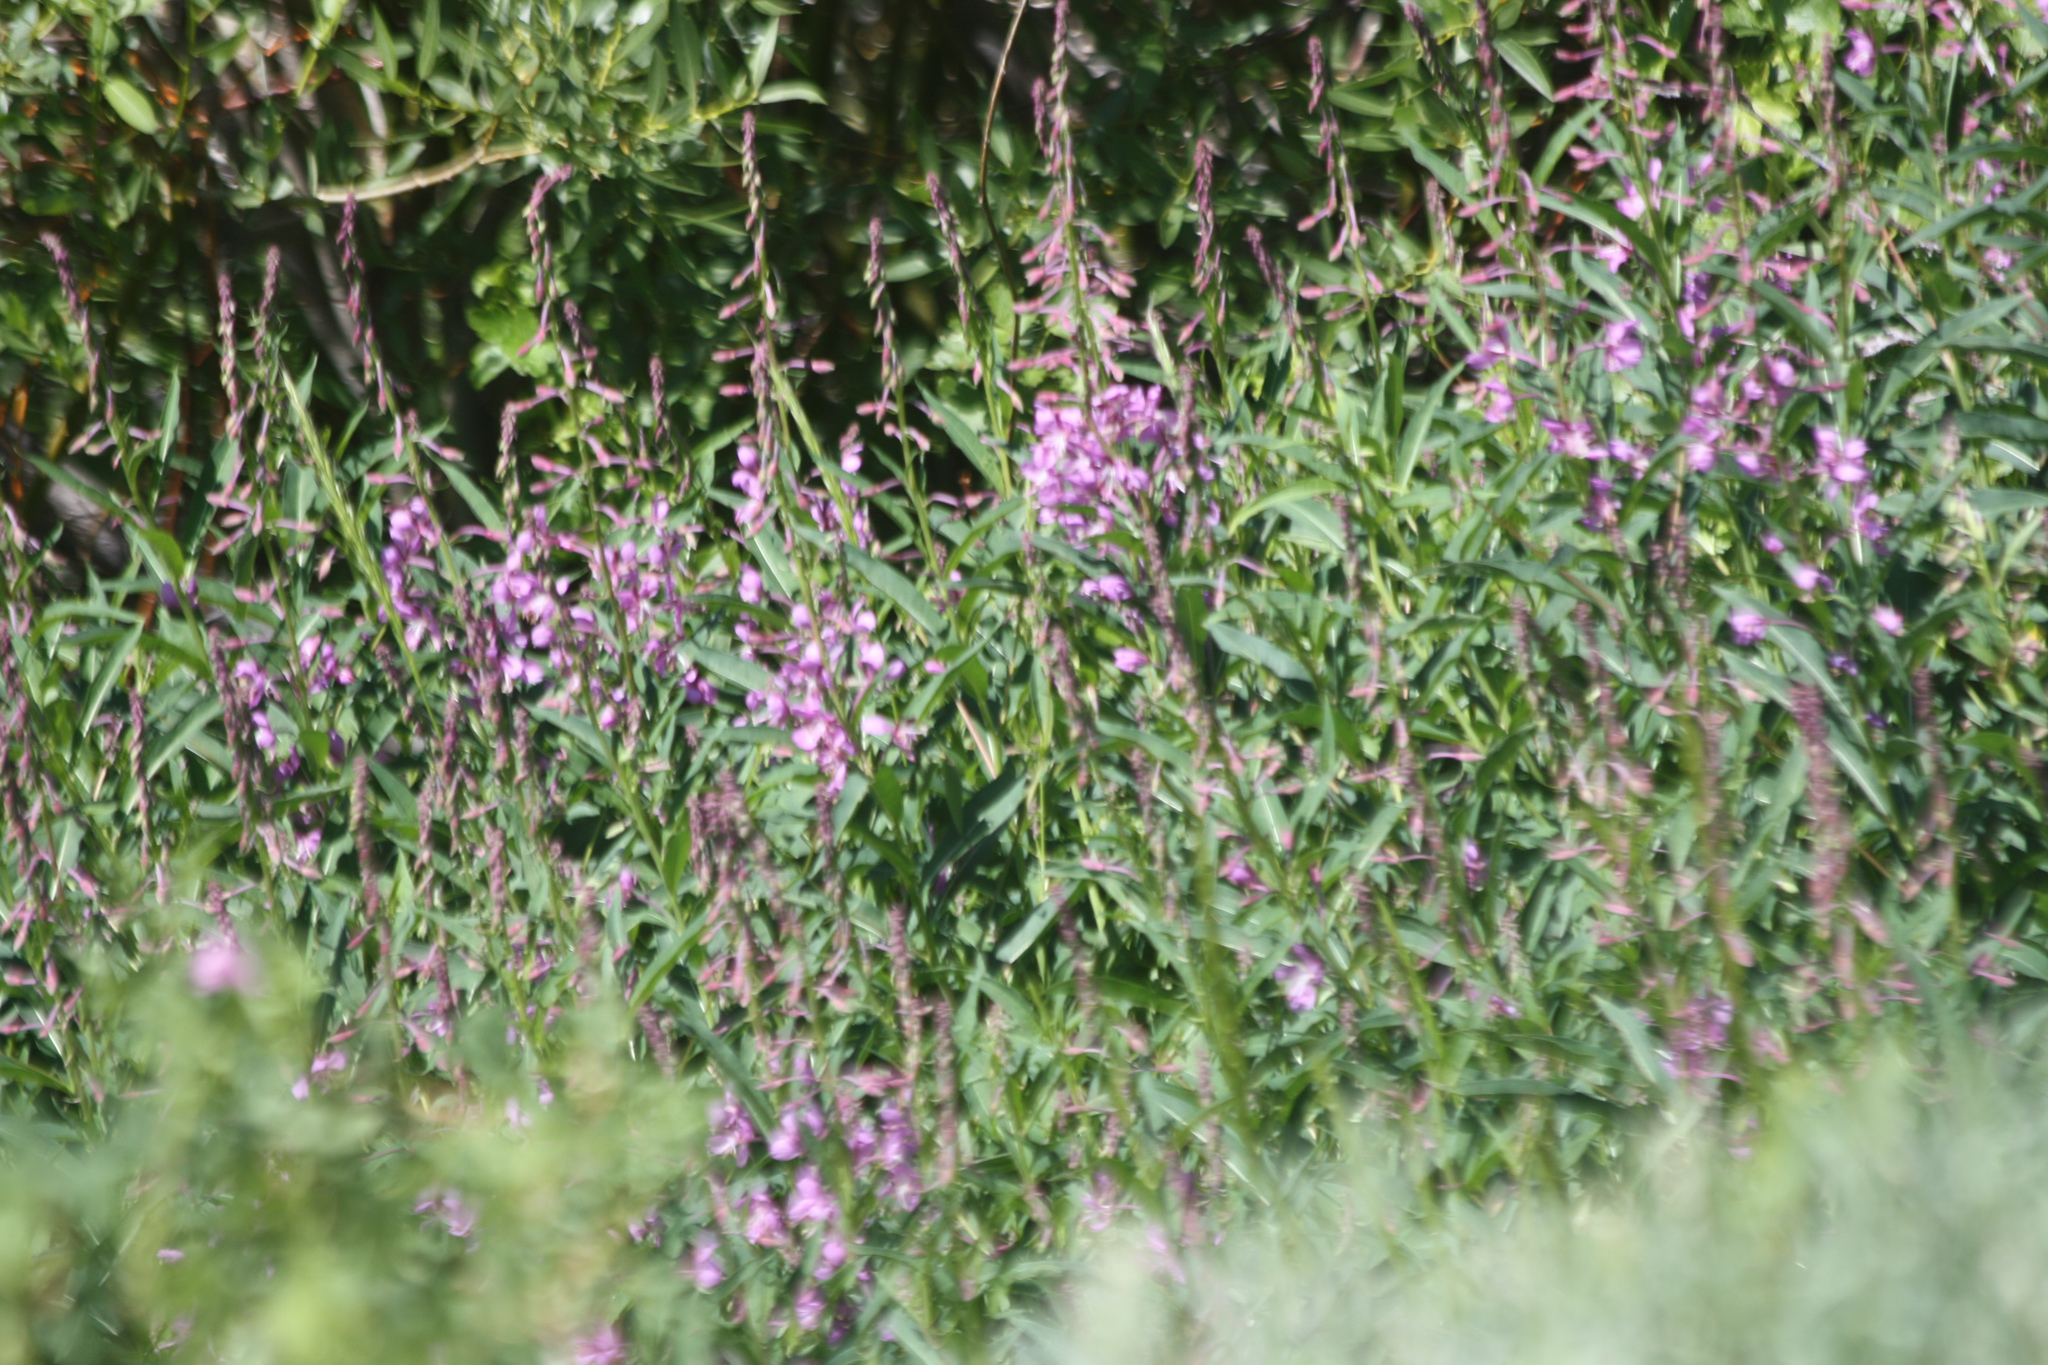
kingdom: Plantae
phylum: Tracheophyta
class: Magnoliopsida
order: Myrtales
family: Onagraceae
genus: Chamaenerion
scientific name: Chamaenerion angustifolium
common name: Fireweed
